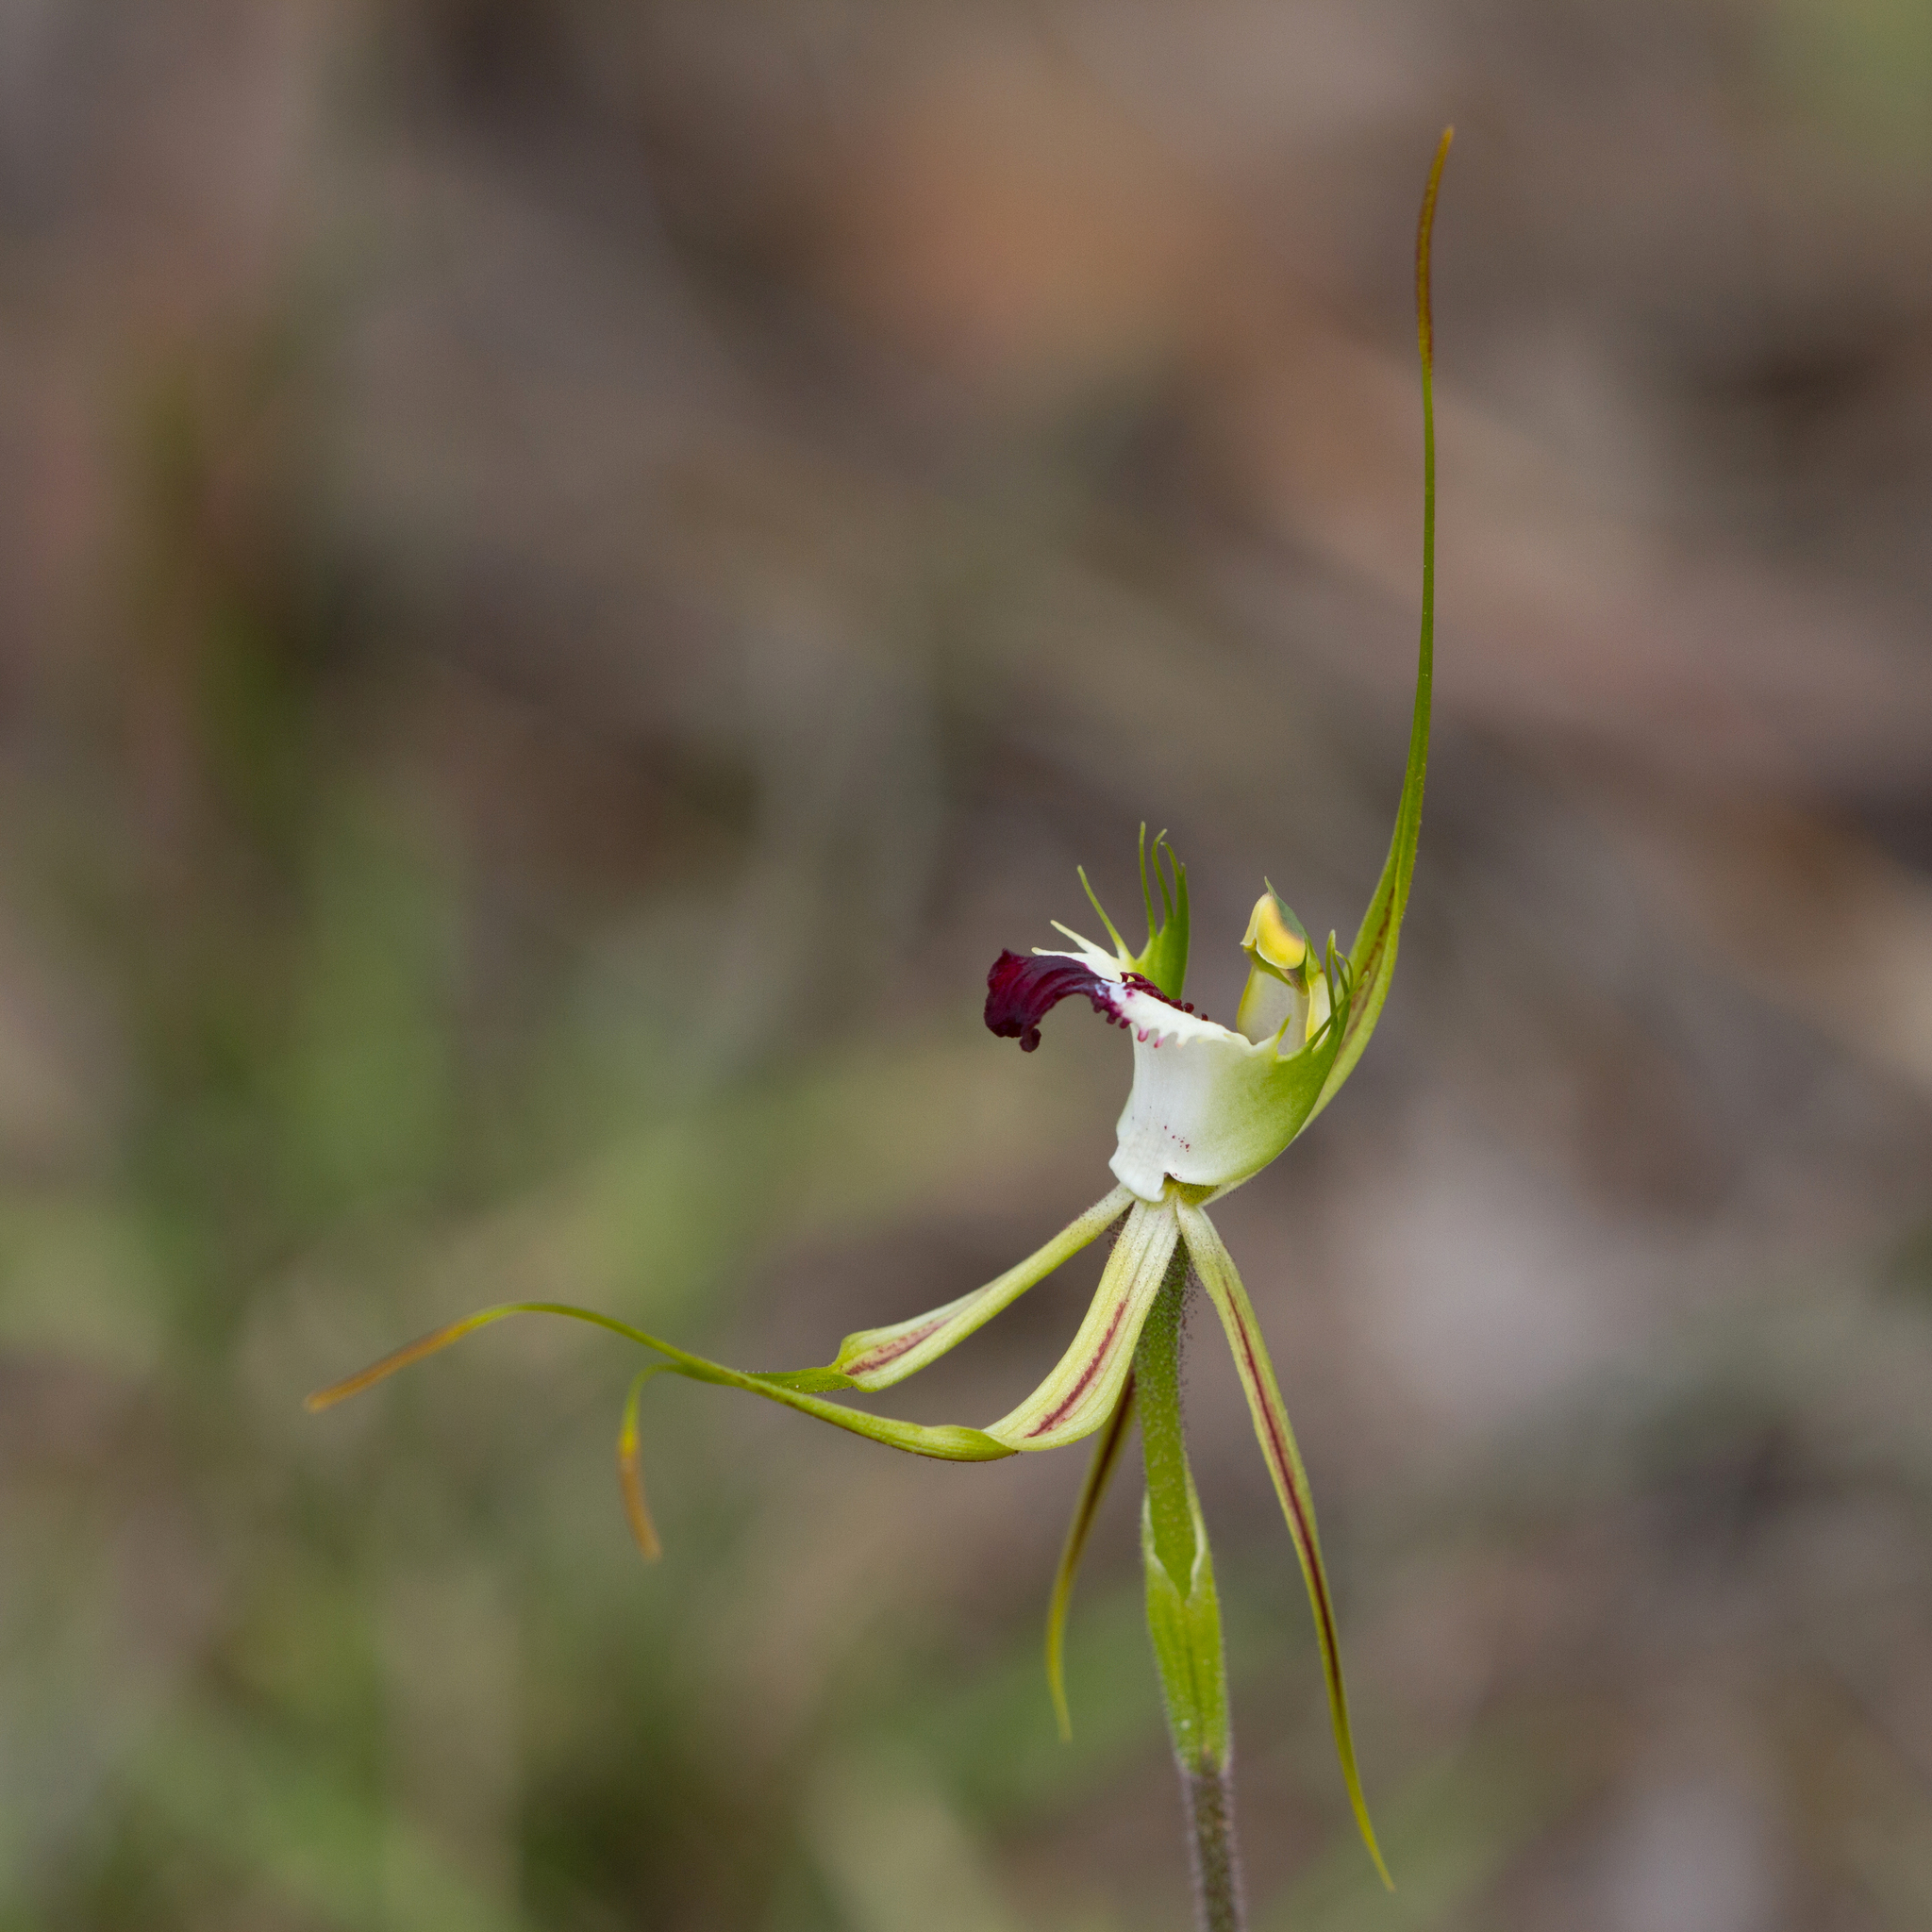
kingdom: Plantae
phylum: Tracheophyta
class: Liliopsida
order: Asparagales
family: Orchidaceae
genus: Caladenia
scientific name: Caladenia tentaculata
